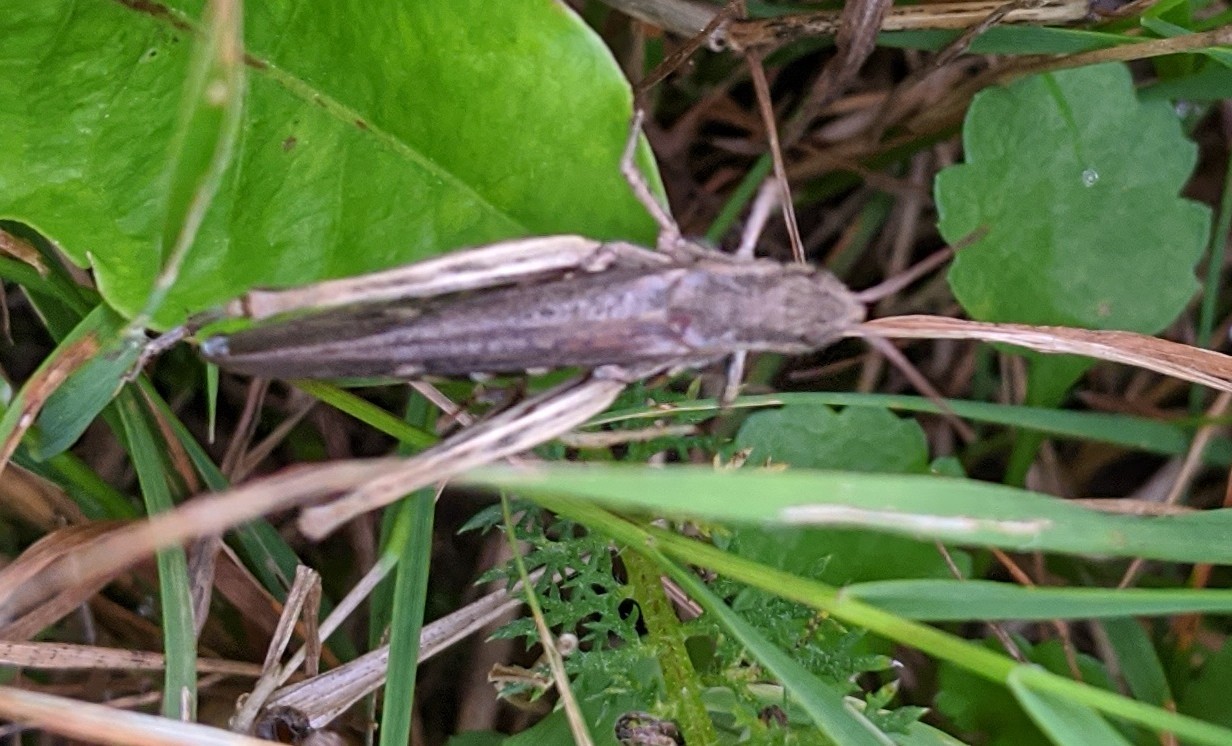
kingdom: Animalia
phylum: Arthropoda
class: Insecta
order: Orthoptera
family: Acrididae
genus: Chorthippus
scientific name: Chorthippus brunneus
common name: Field grasshopper
